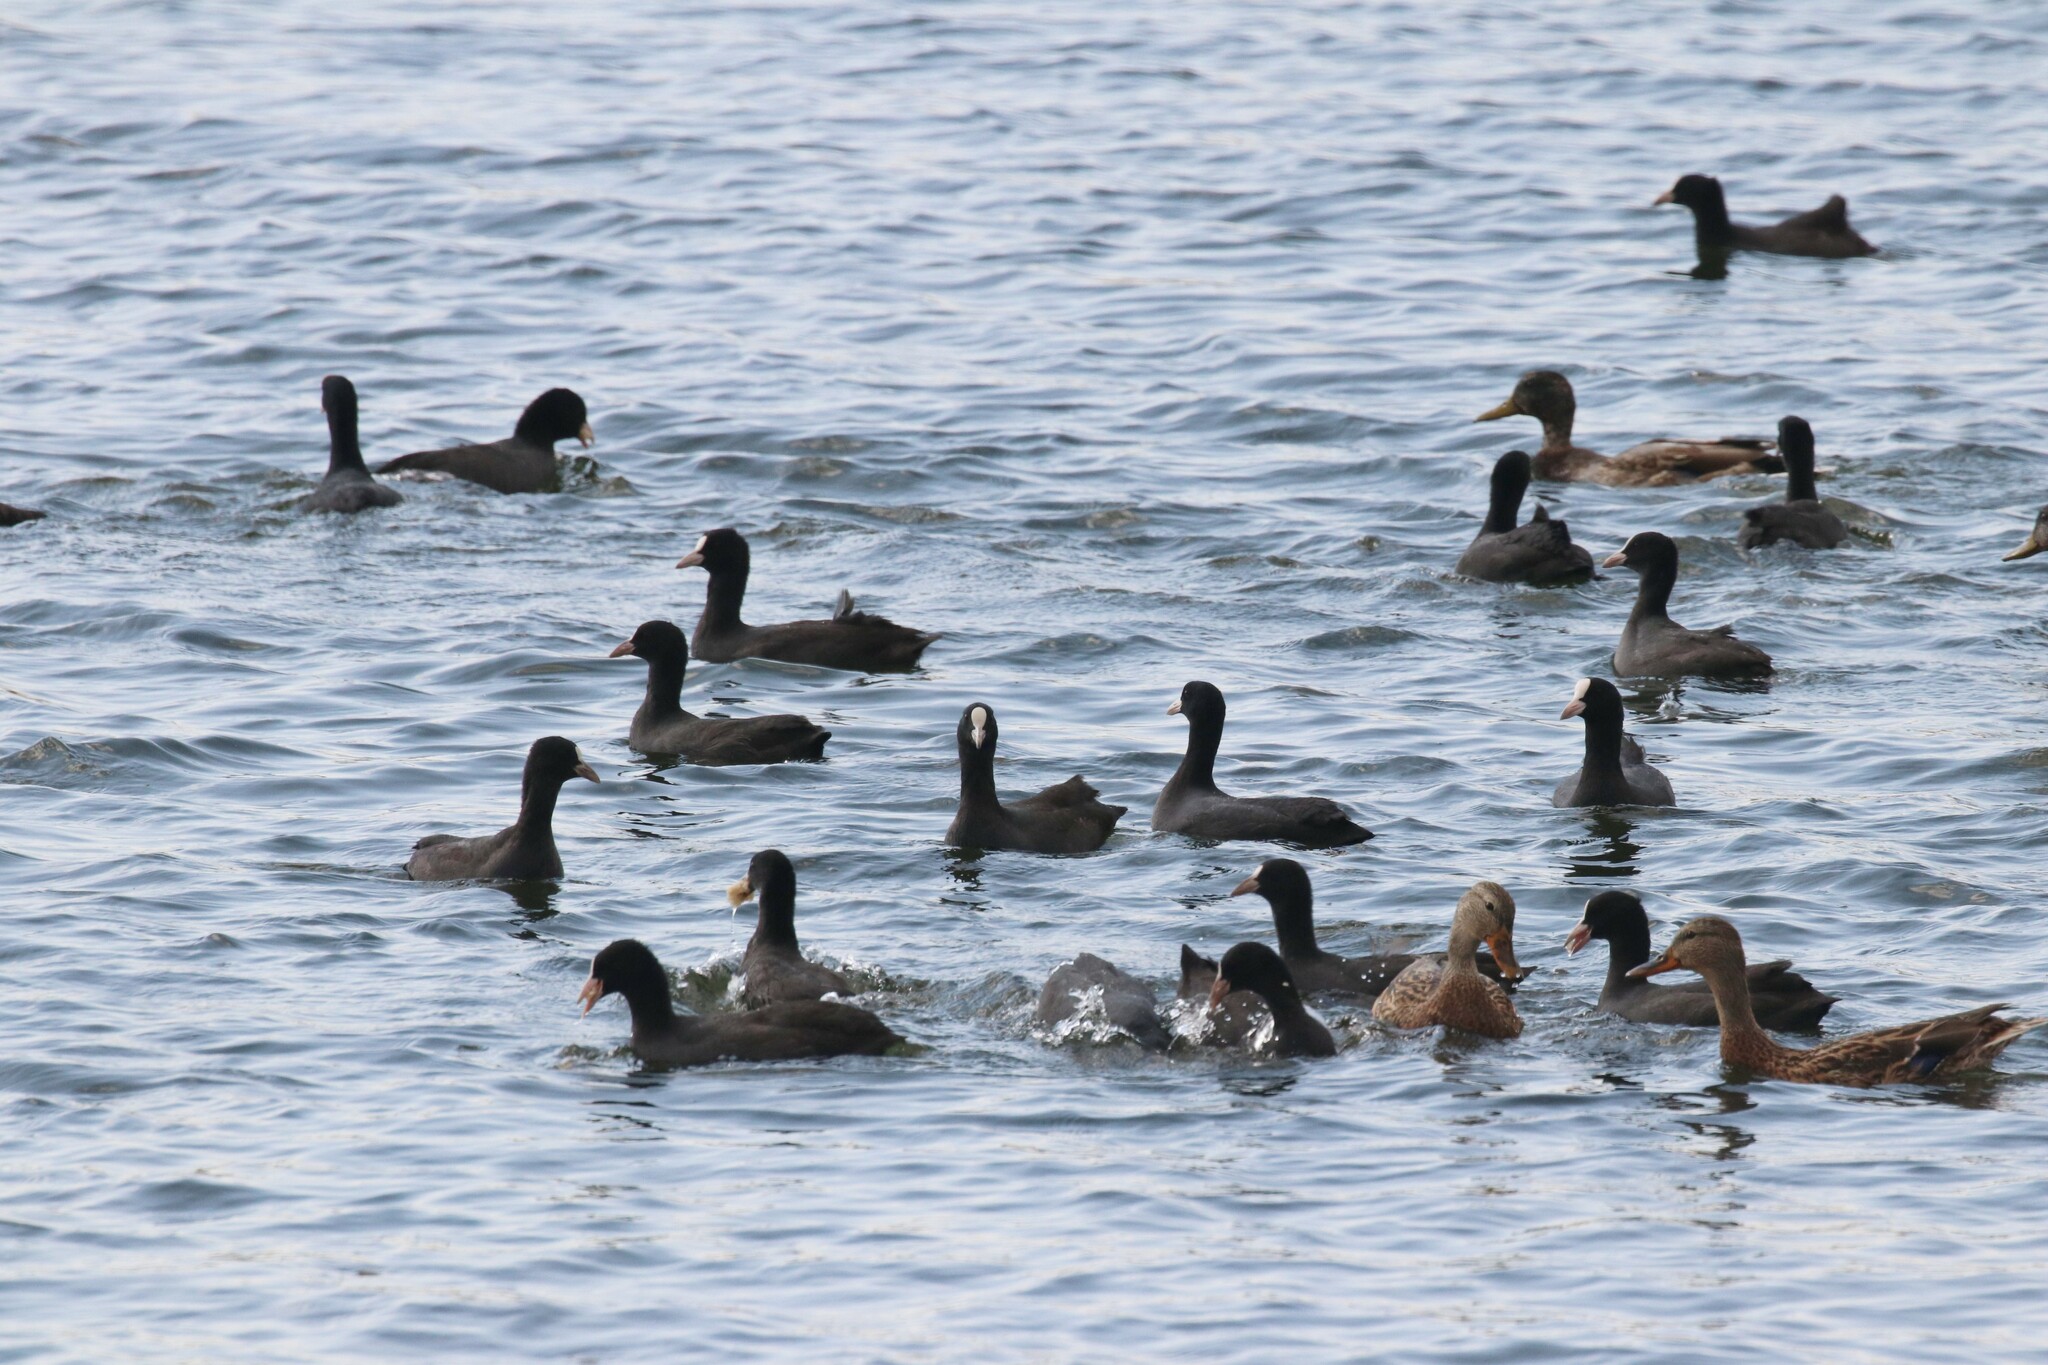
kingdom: Animalia
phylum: Chordata
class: Aves
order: Gruiformes
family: Rallidae
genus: Fulica
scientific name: Fulica atra
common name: Eurasian coot
